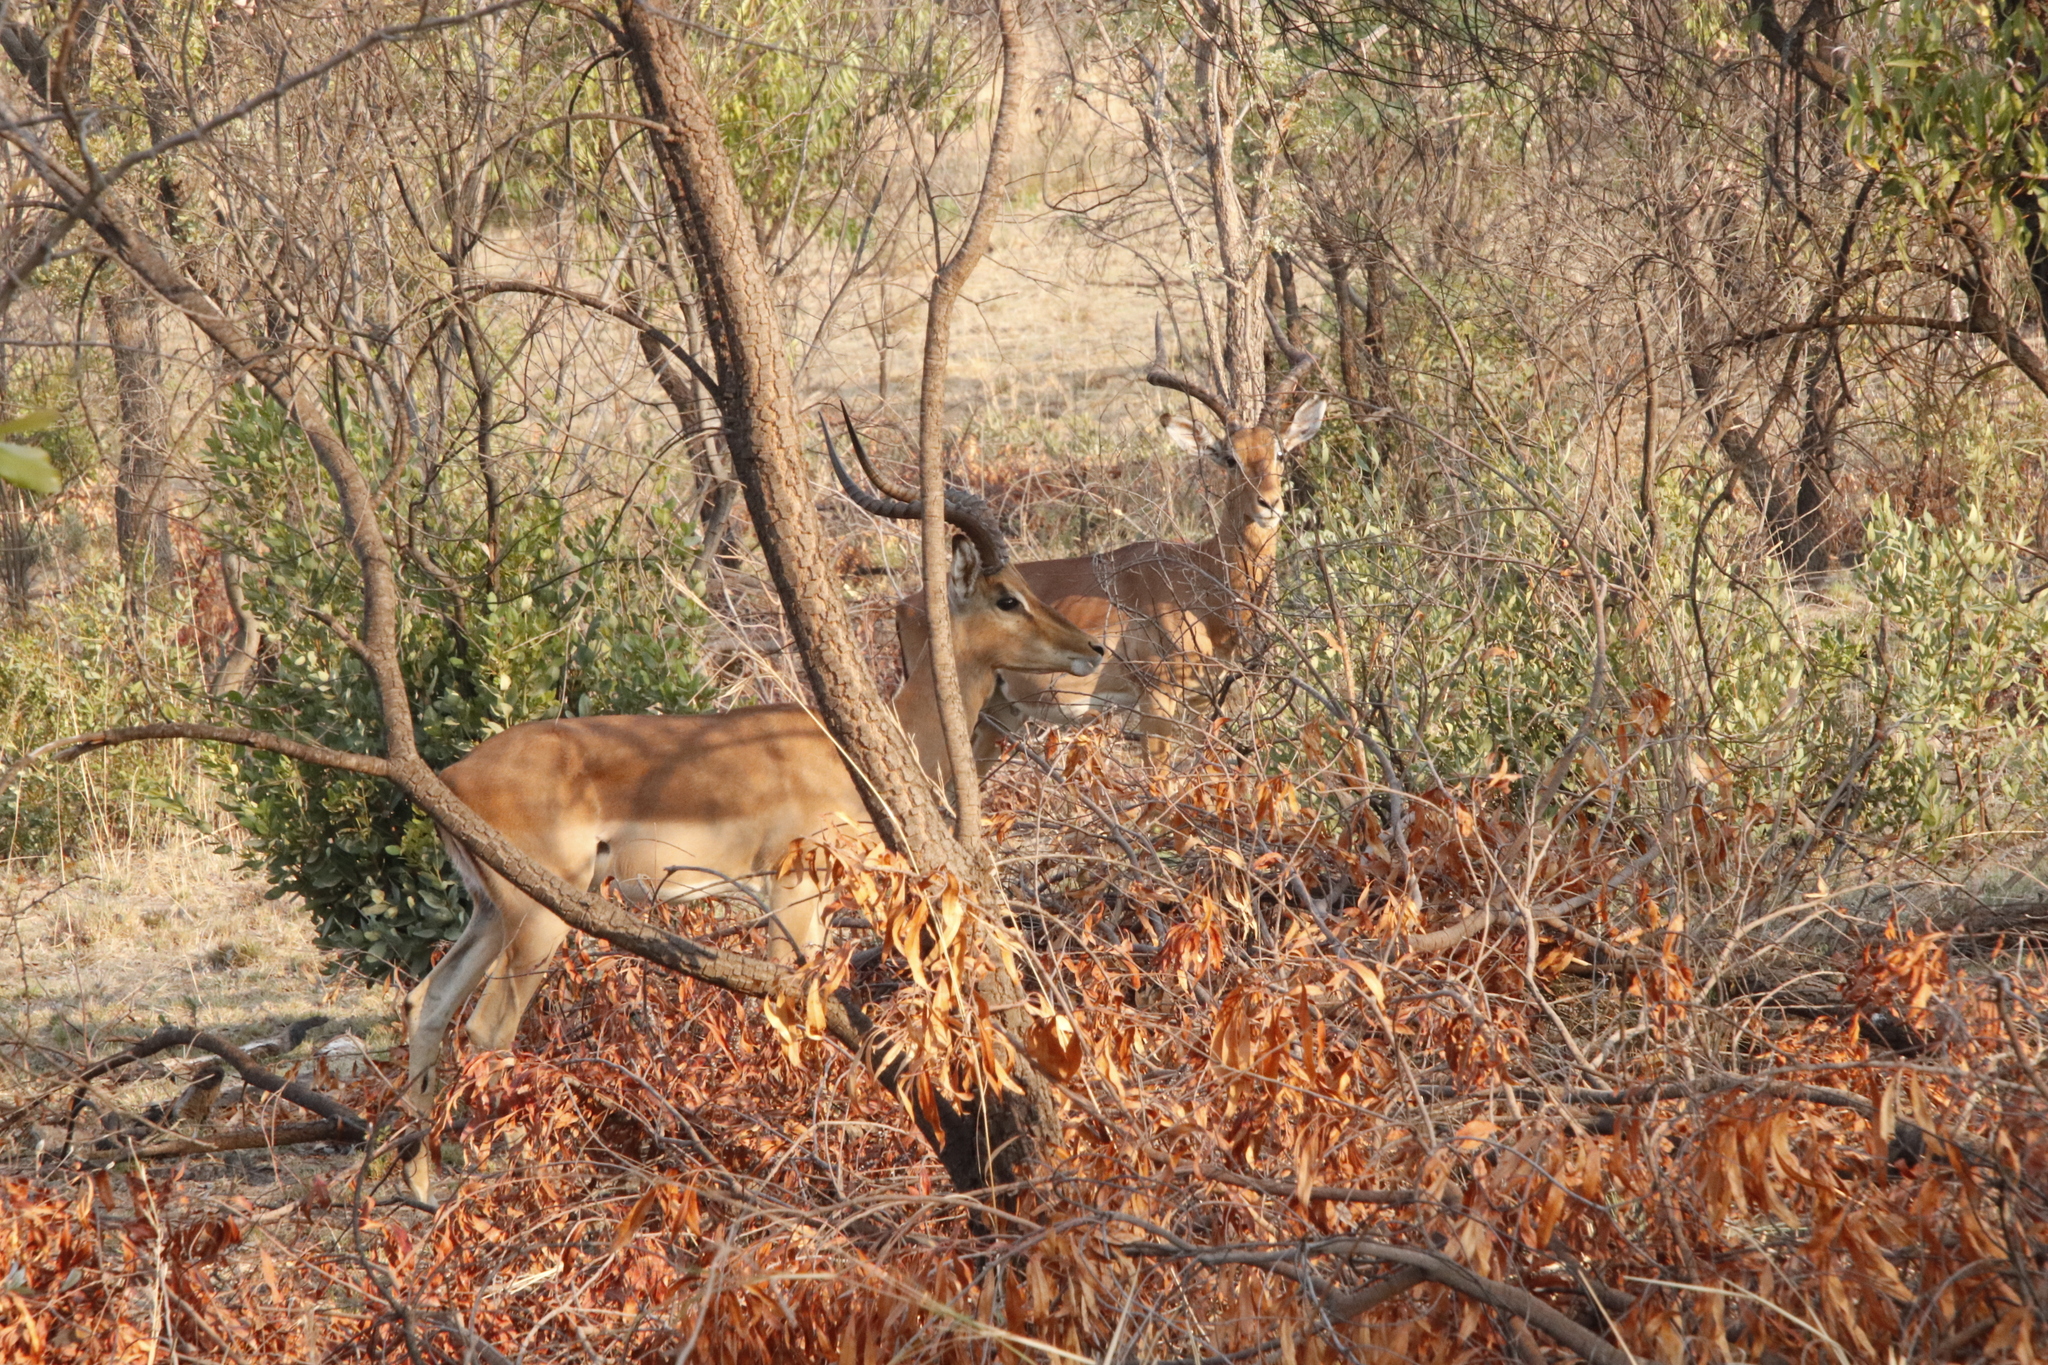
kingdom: Animalia
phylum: Chordata
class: Mammalia
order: Artiodactyla
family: Bovidae
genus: Aepyceros
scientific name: Aepyceros melampus
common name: Impala
